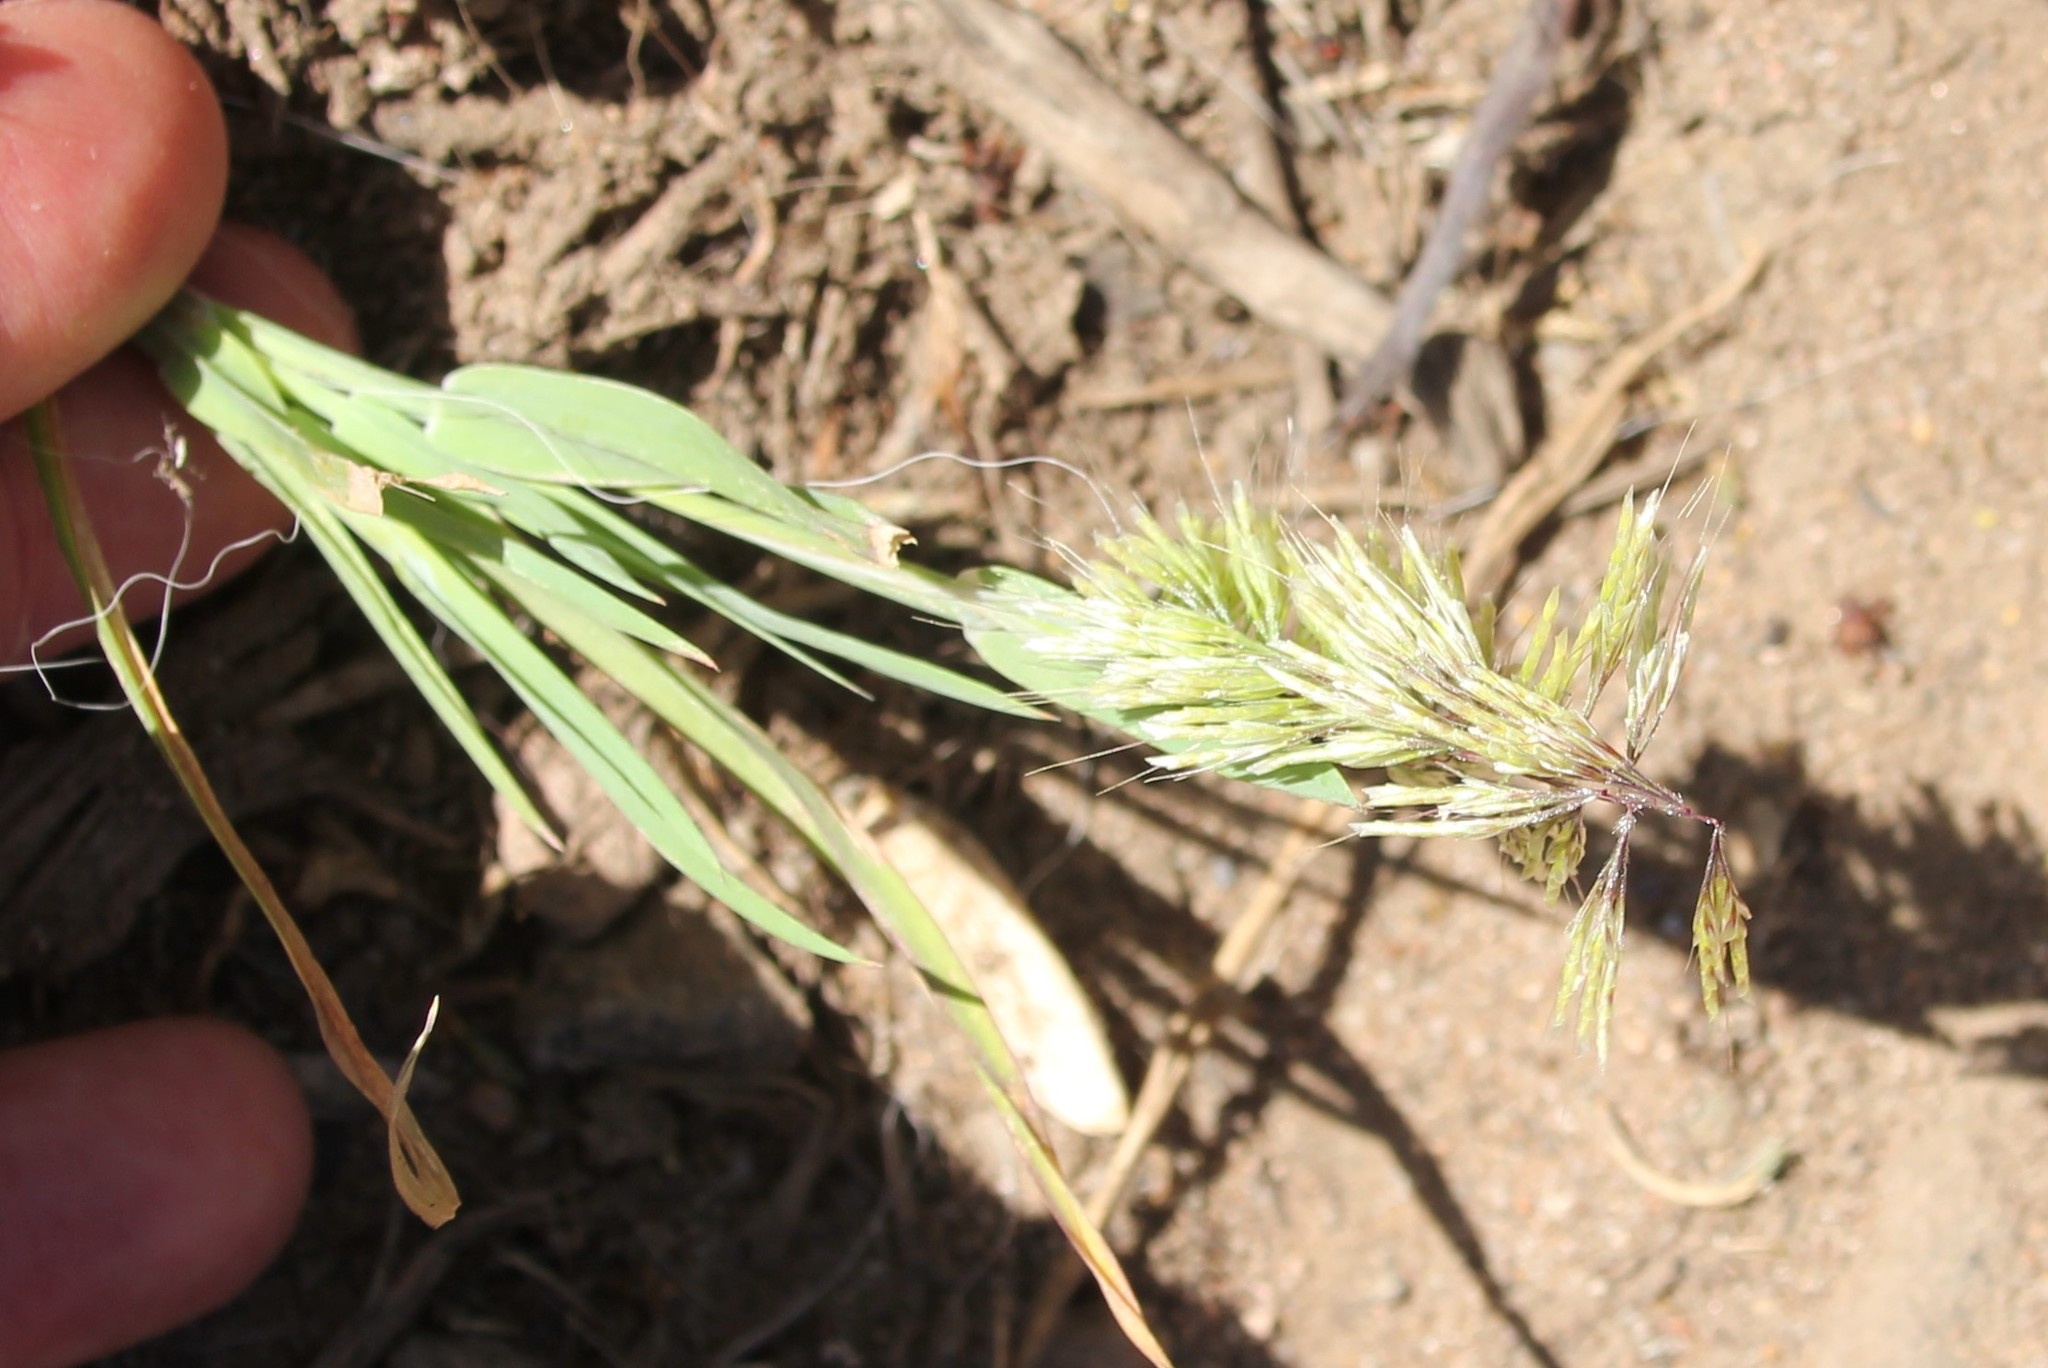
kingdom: Plantae
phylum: Tracheophyta
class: Liliopsida
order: Poales
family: Poaceae
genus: Lamarckia
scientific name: Lamarckia aurea
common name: Golden dog's-tail
